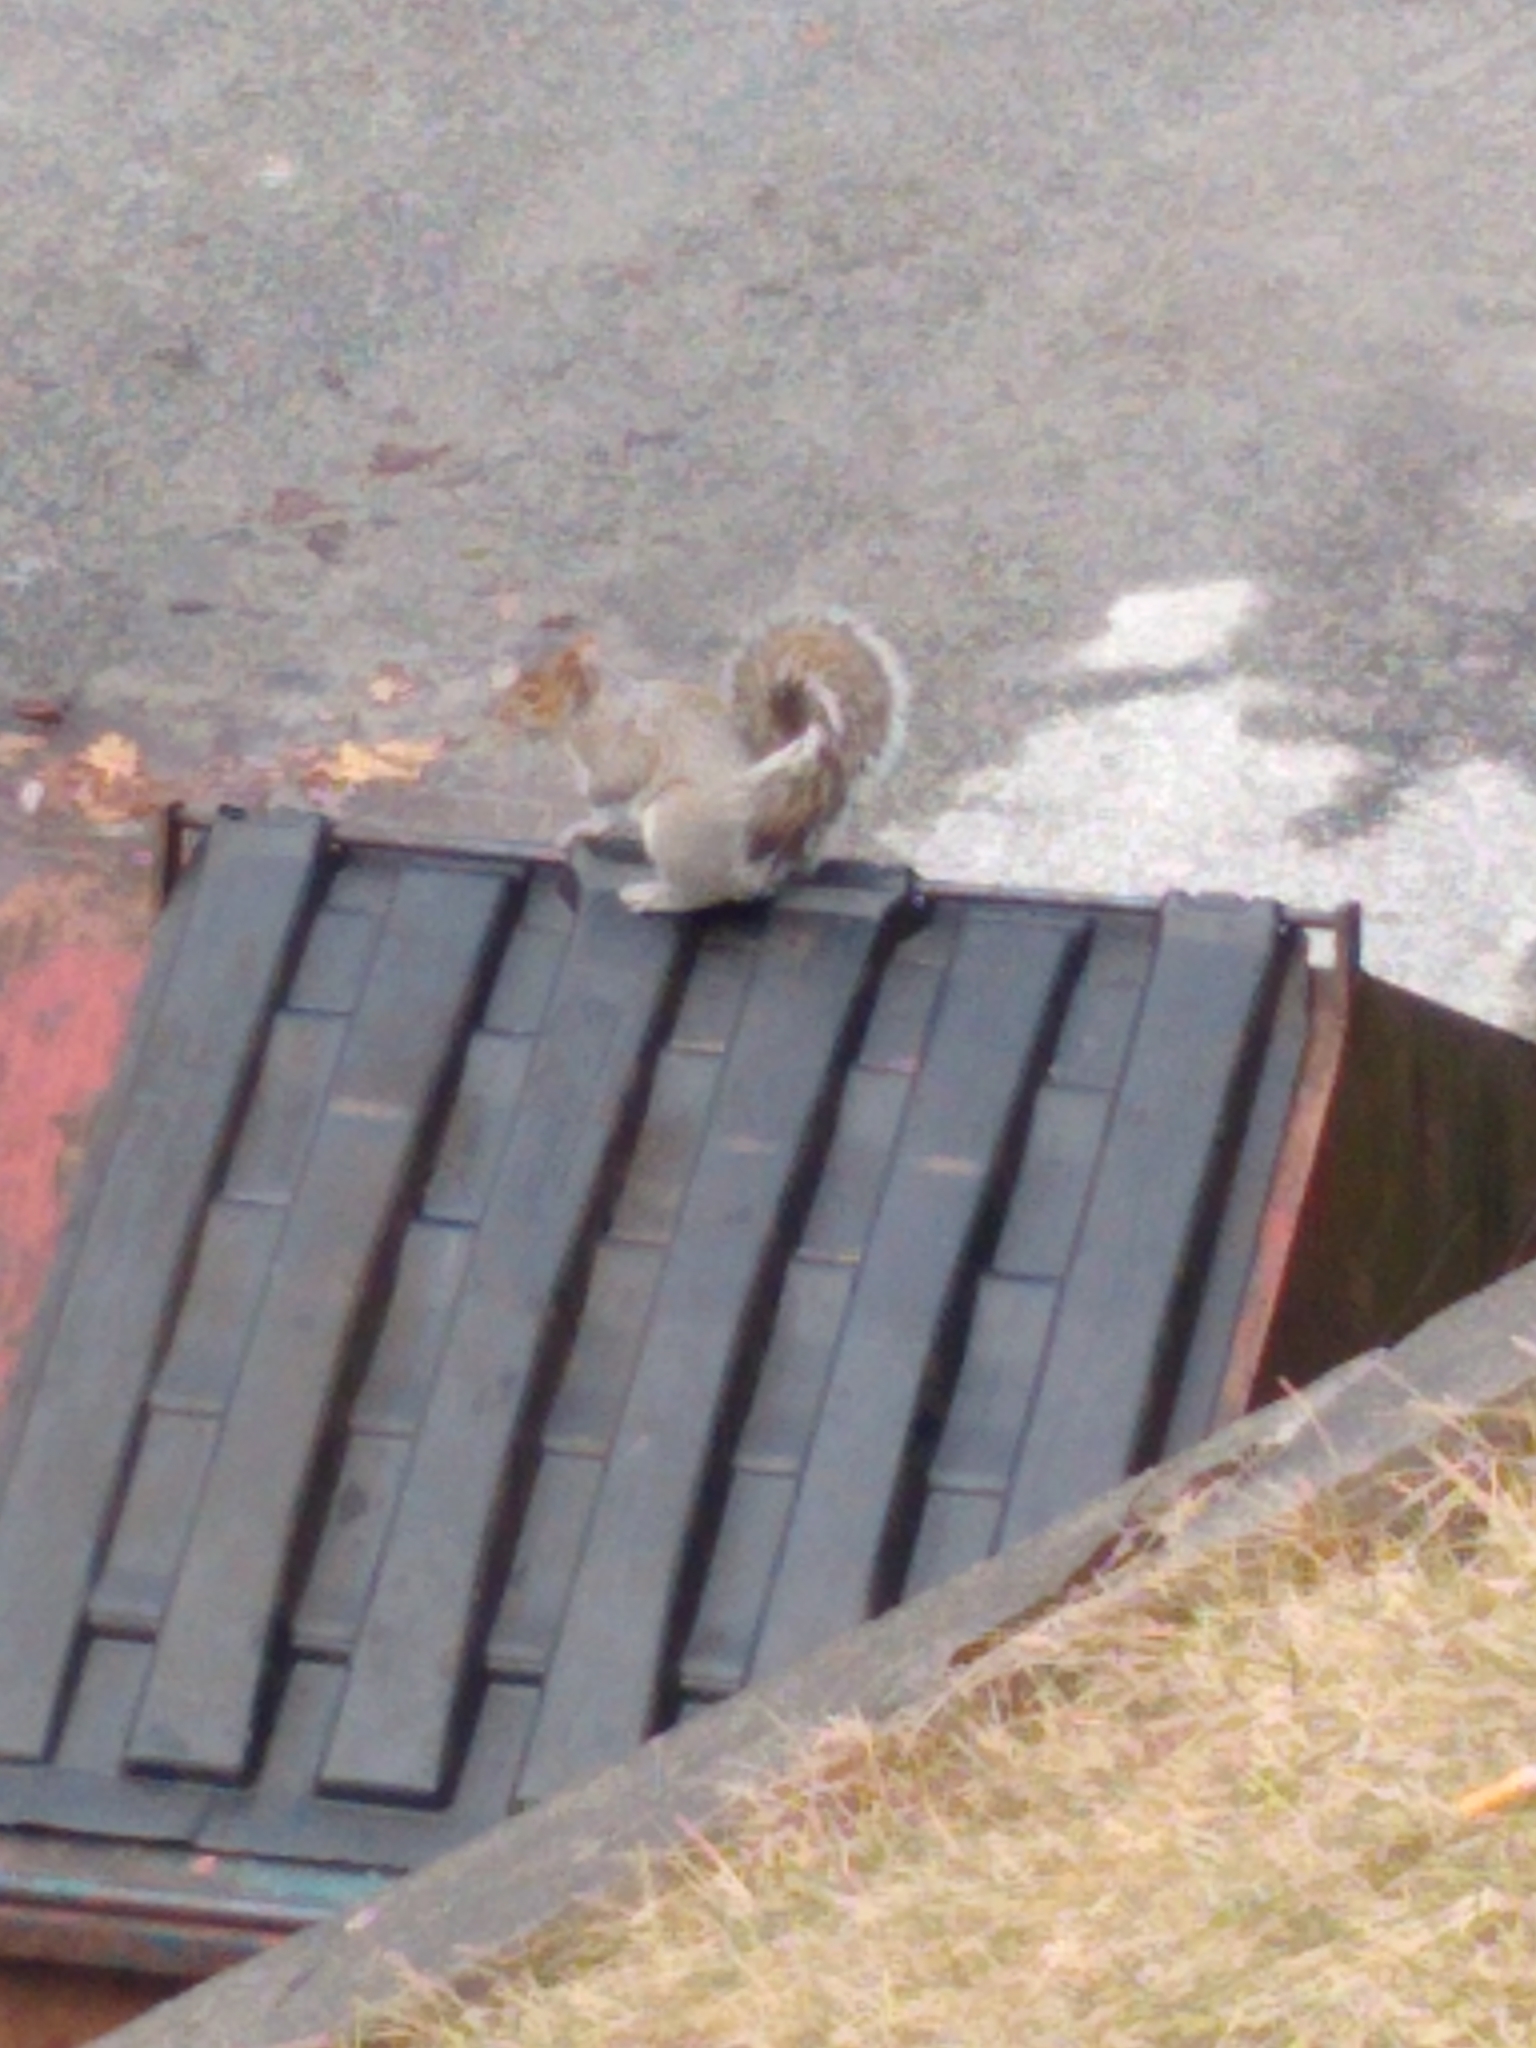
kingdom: Animalia
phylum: Chordata
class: Mammalia
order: Rodentia
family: Sciuridae
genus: Sciurus
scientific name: Sciurus carolinensis
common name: Eastern gray squirrel
